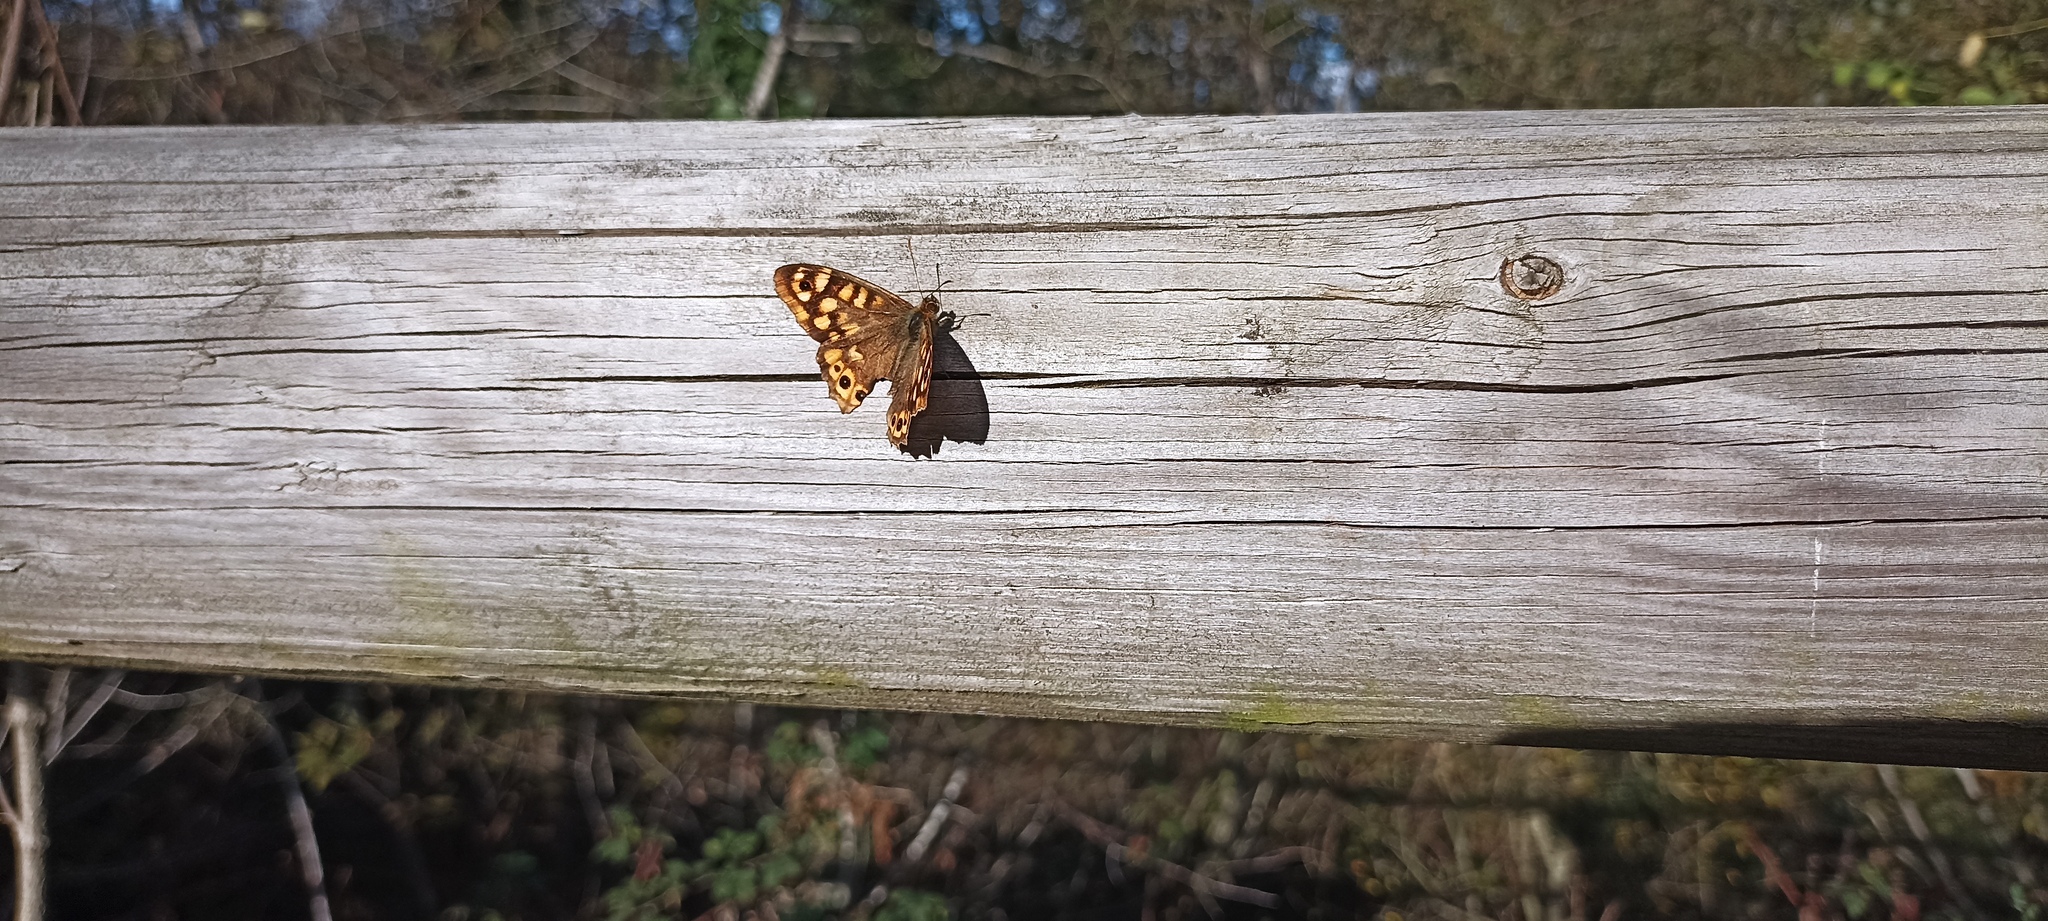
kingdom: Animalia
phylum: Arthropoda
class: Insecta
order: Lepidoptera
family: Nymphalidae
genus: Pararge
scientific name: Pararge aegeria
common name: Speckled wood
